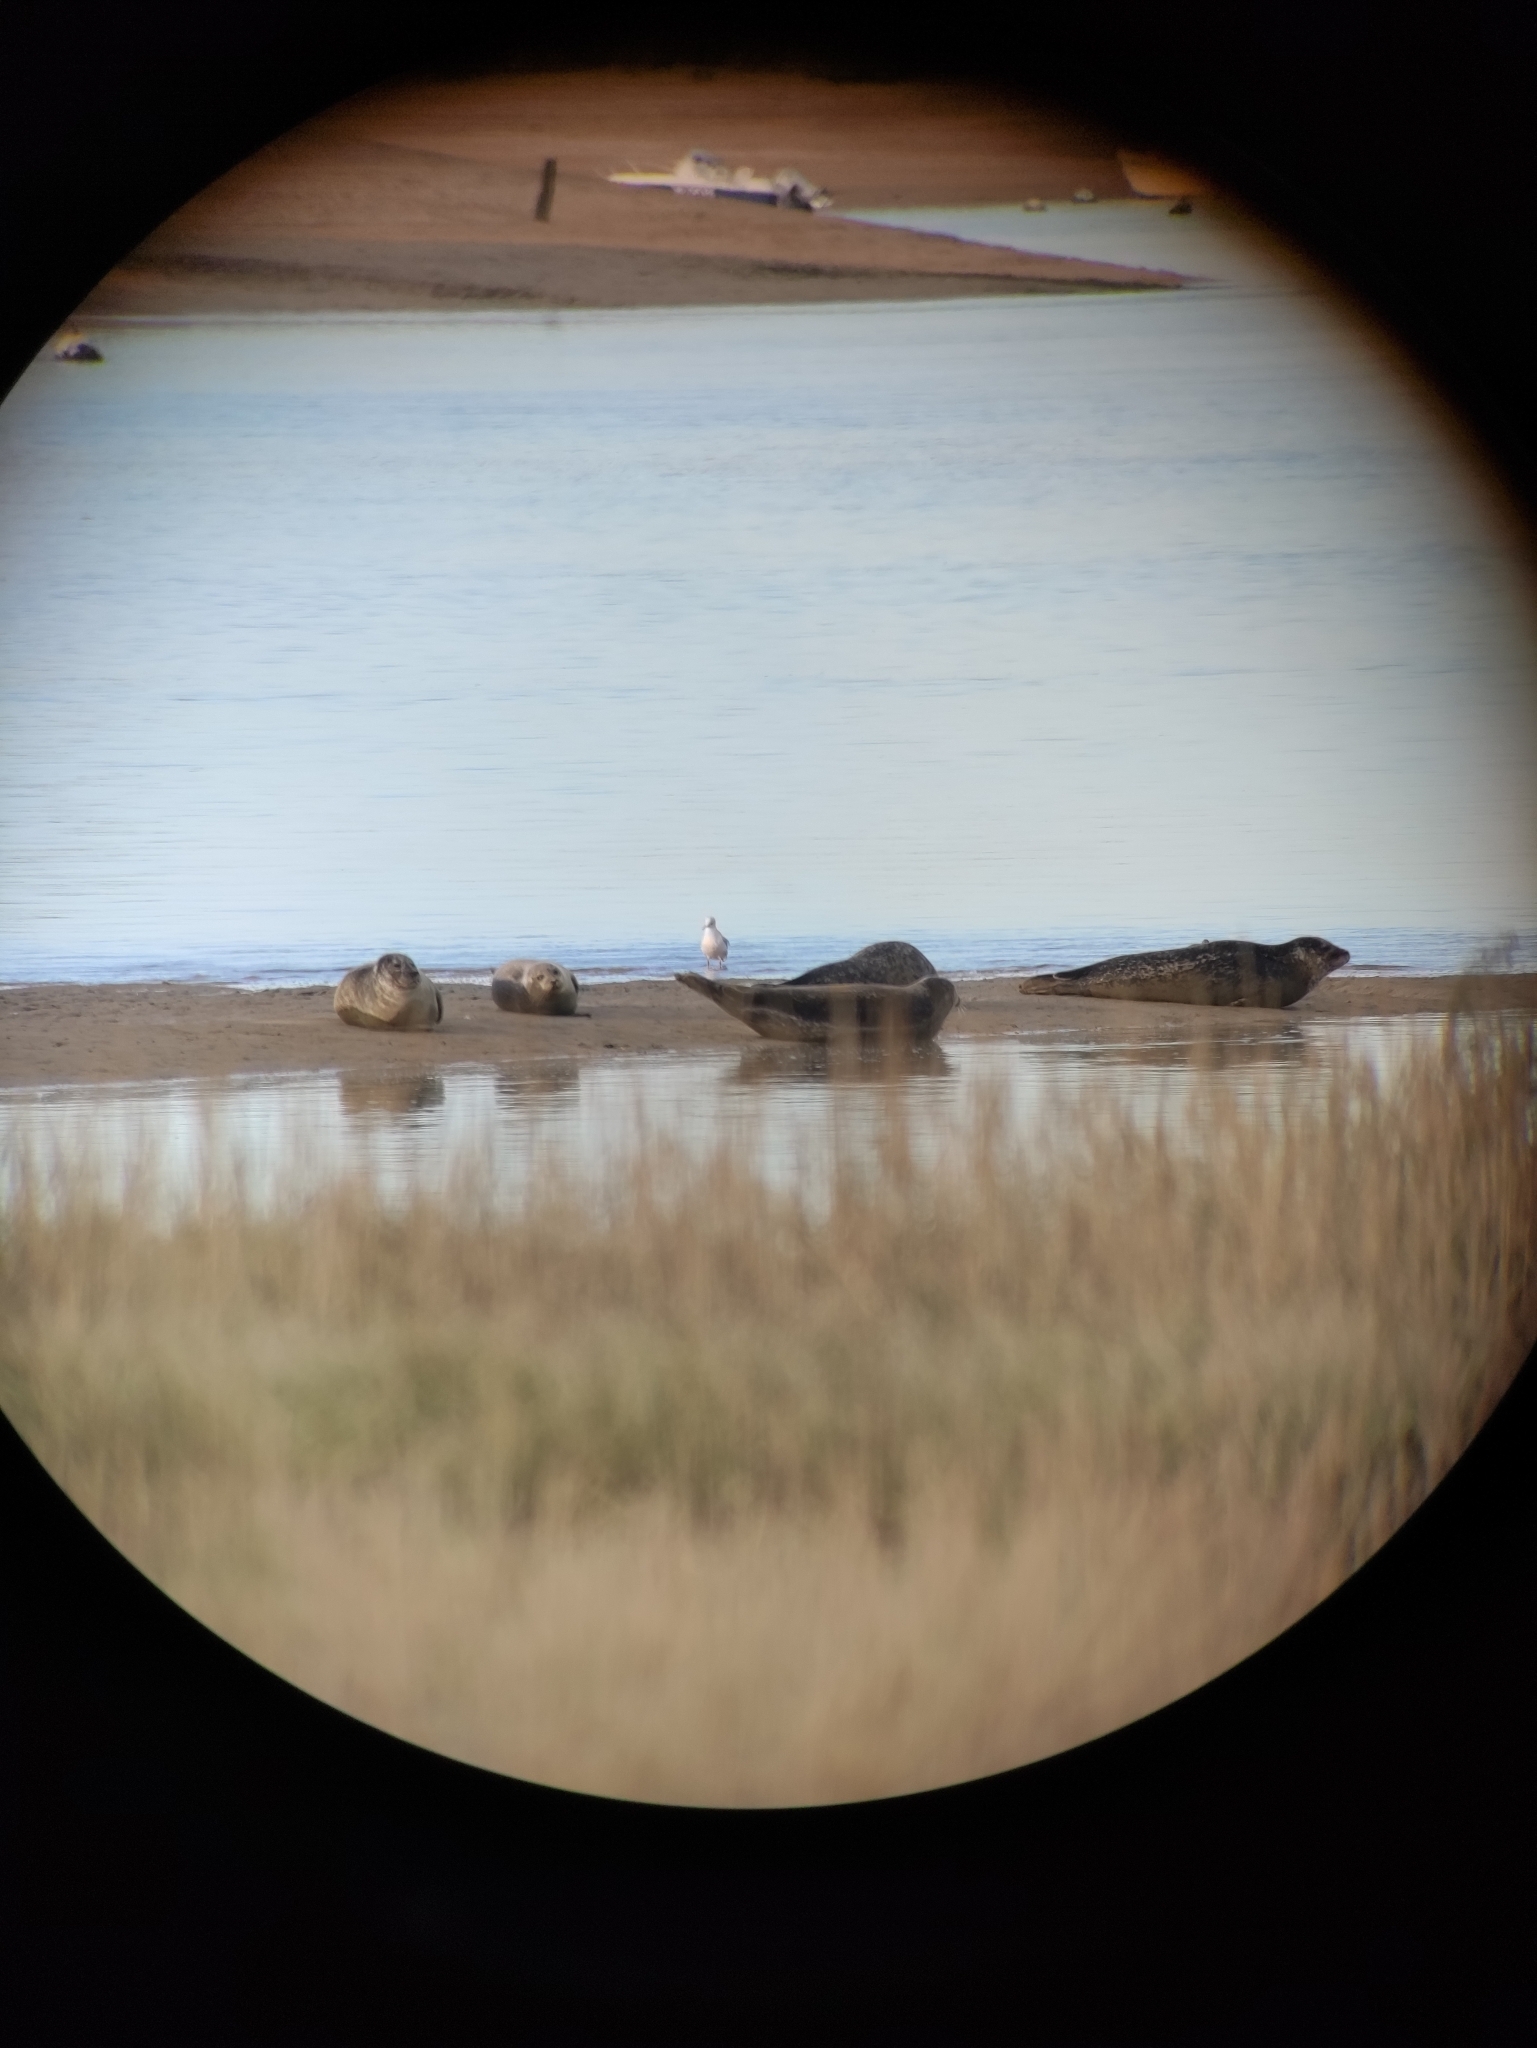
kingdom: Animalia
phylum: Chordata
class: Mammalia
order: Carnivora
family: Phocidae
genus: Phoca
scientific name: Phoca vitulina
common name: Harbor seal
